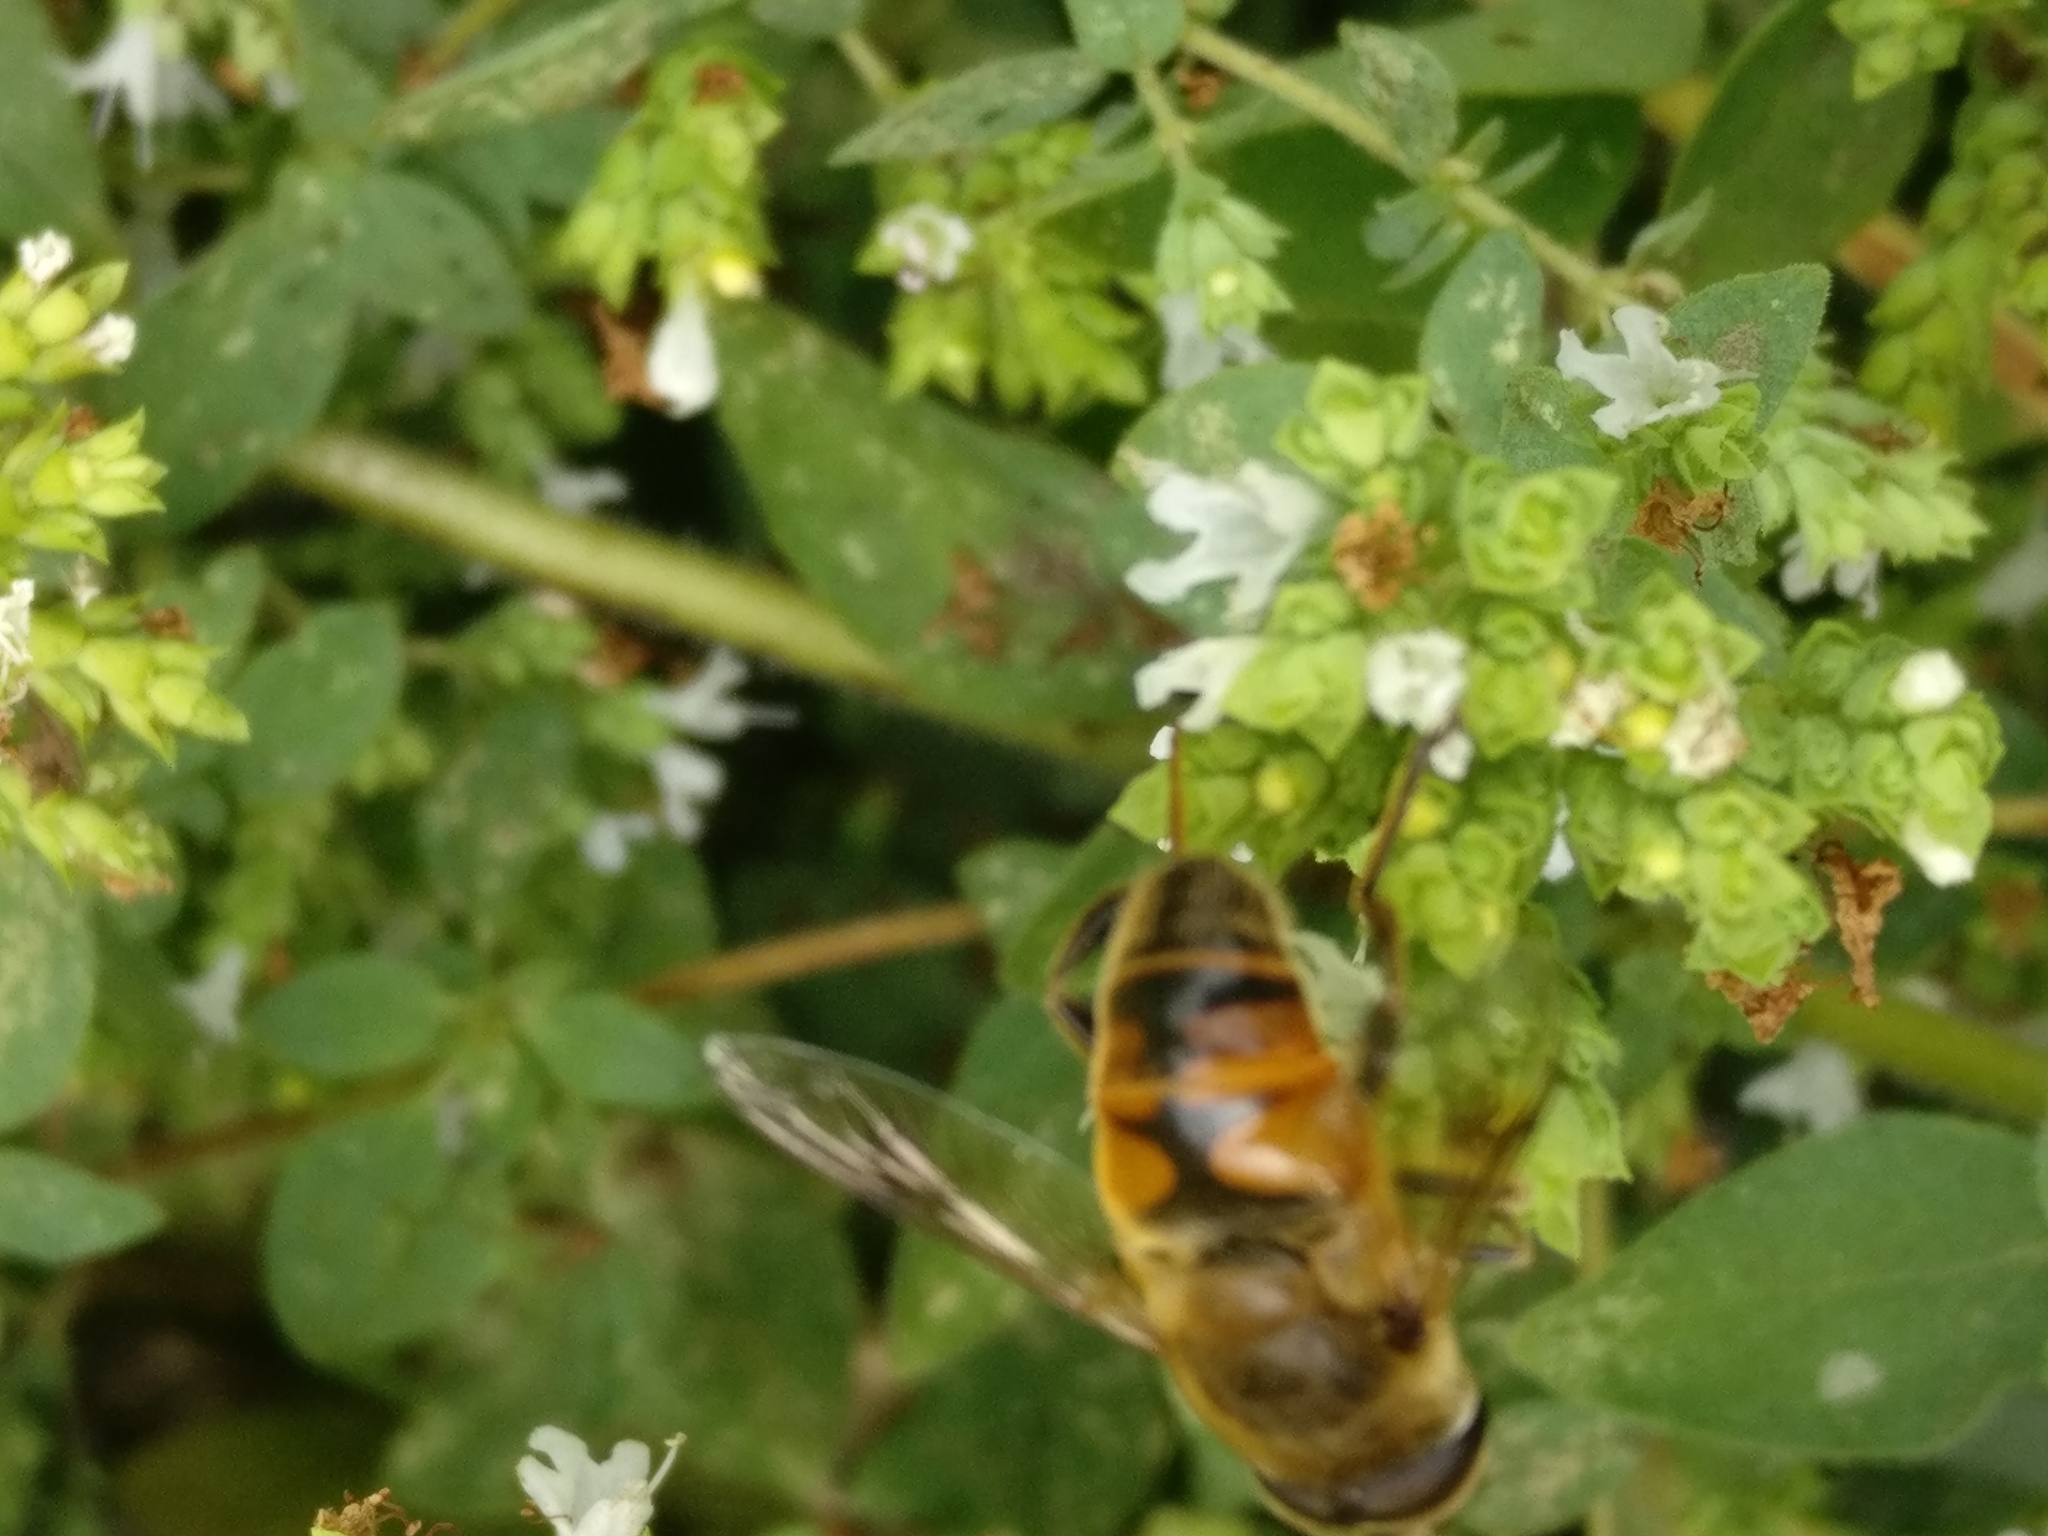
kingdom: Animalia
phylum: Arthropoda
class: Insecta
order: Diptera
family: Syrphidae
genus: Eristalis
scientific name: Eristalis tenax
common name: Drone fly
